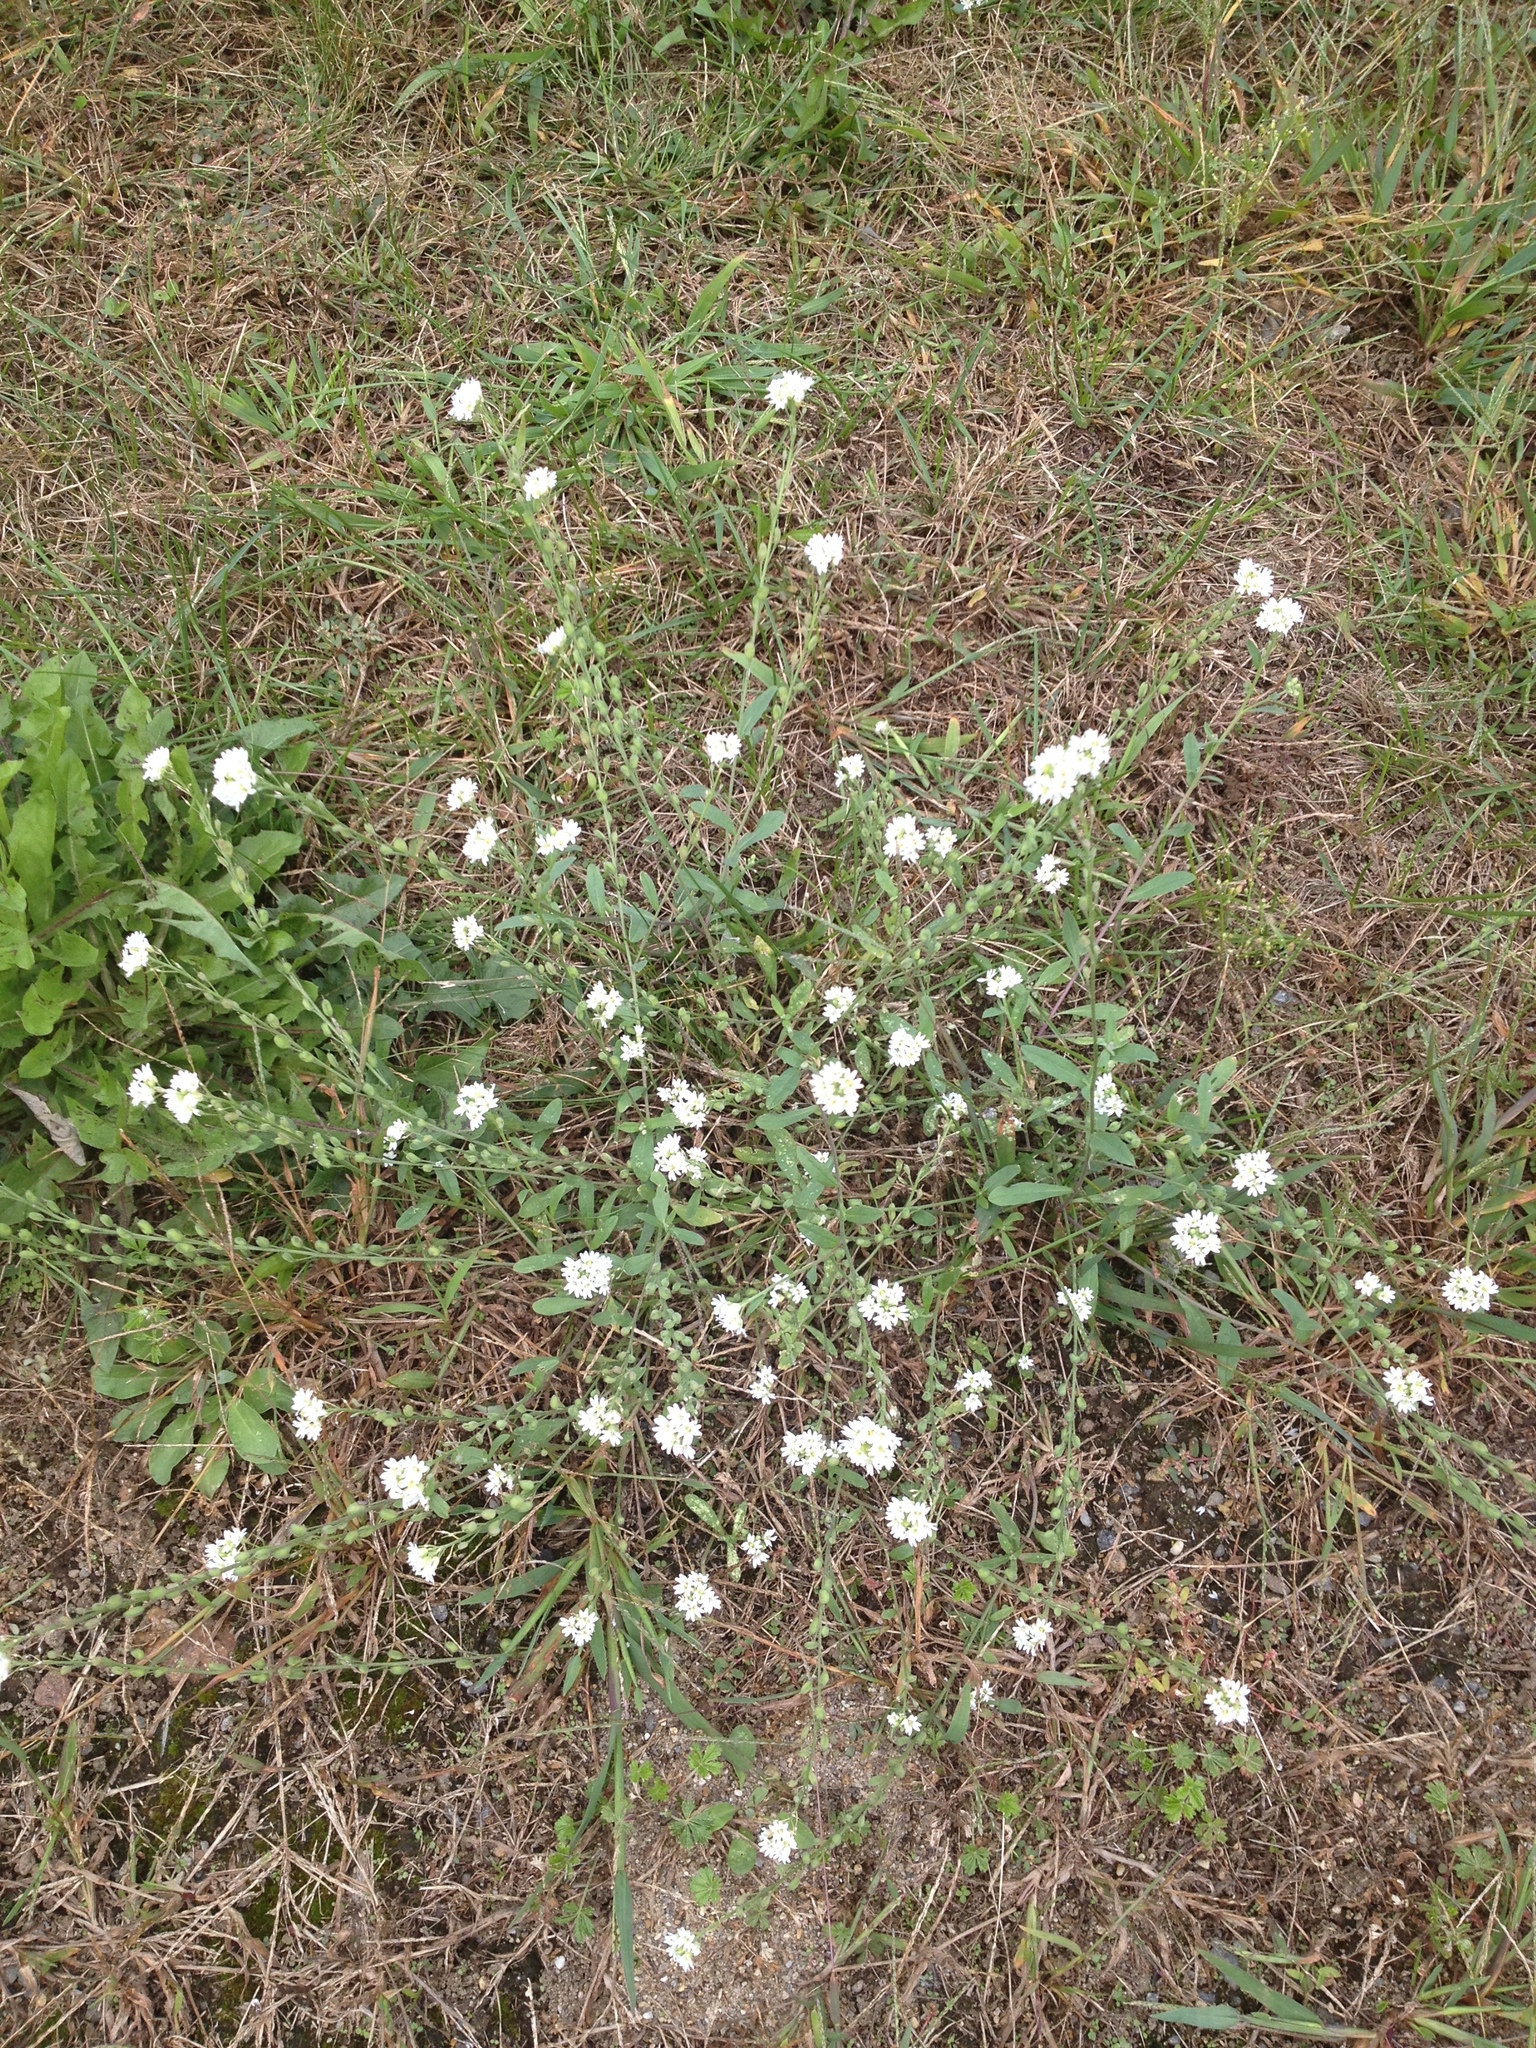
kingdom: Plantae
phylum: Tracheophyta
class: Magnoliopsida
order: Brassicales
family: Brassicaceae
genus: Berteroa
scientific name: Berteroa incana
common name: Hoary alison
